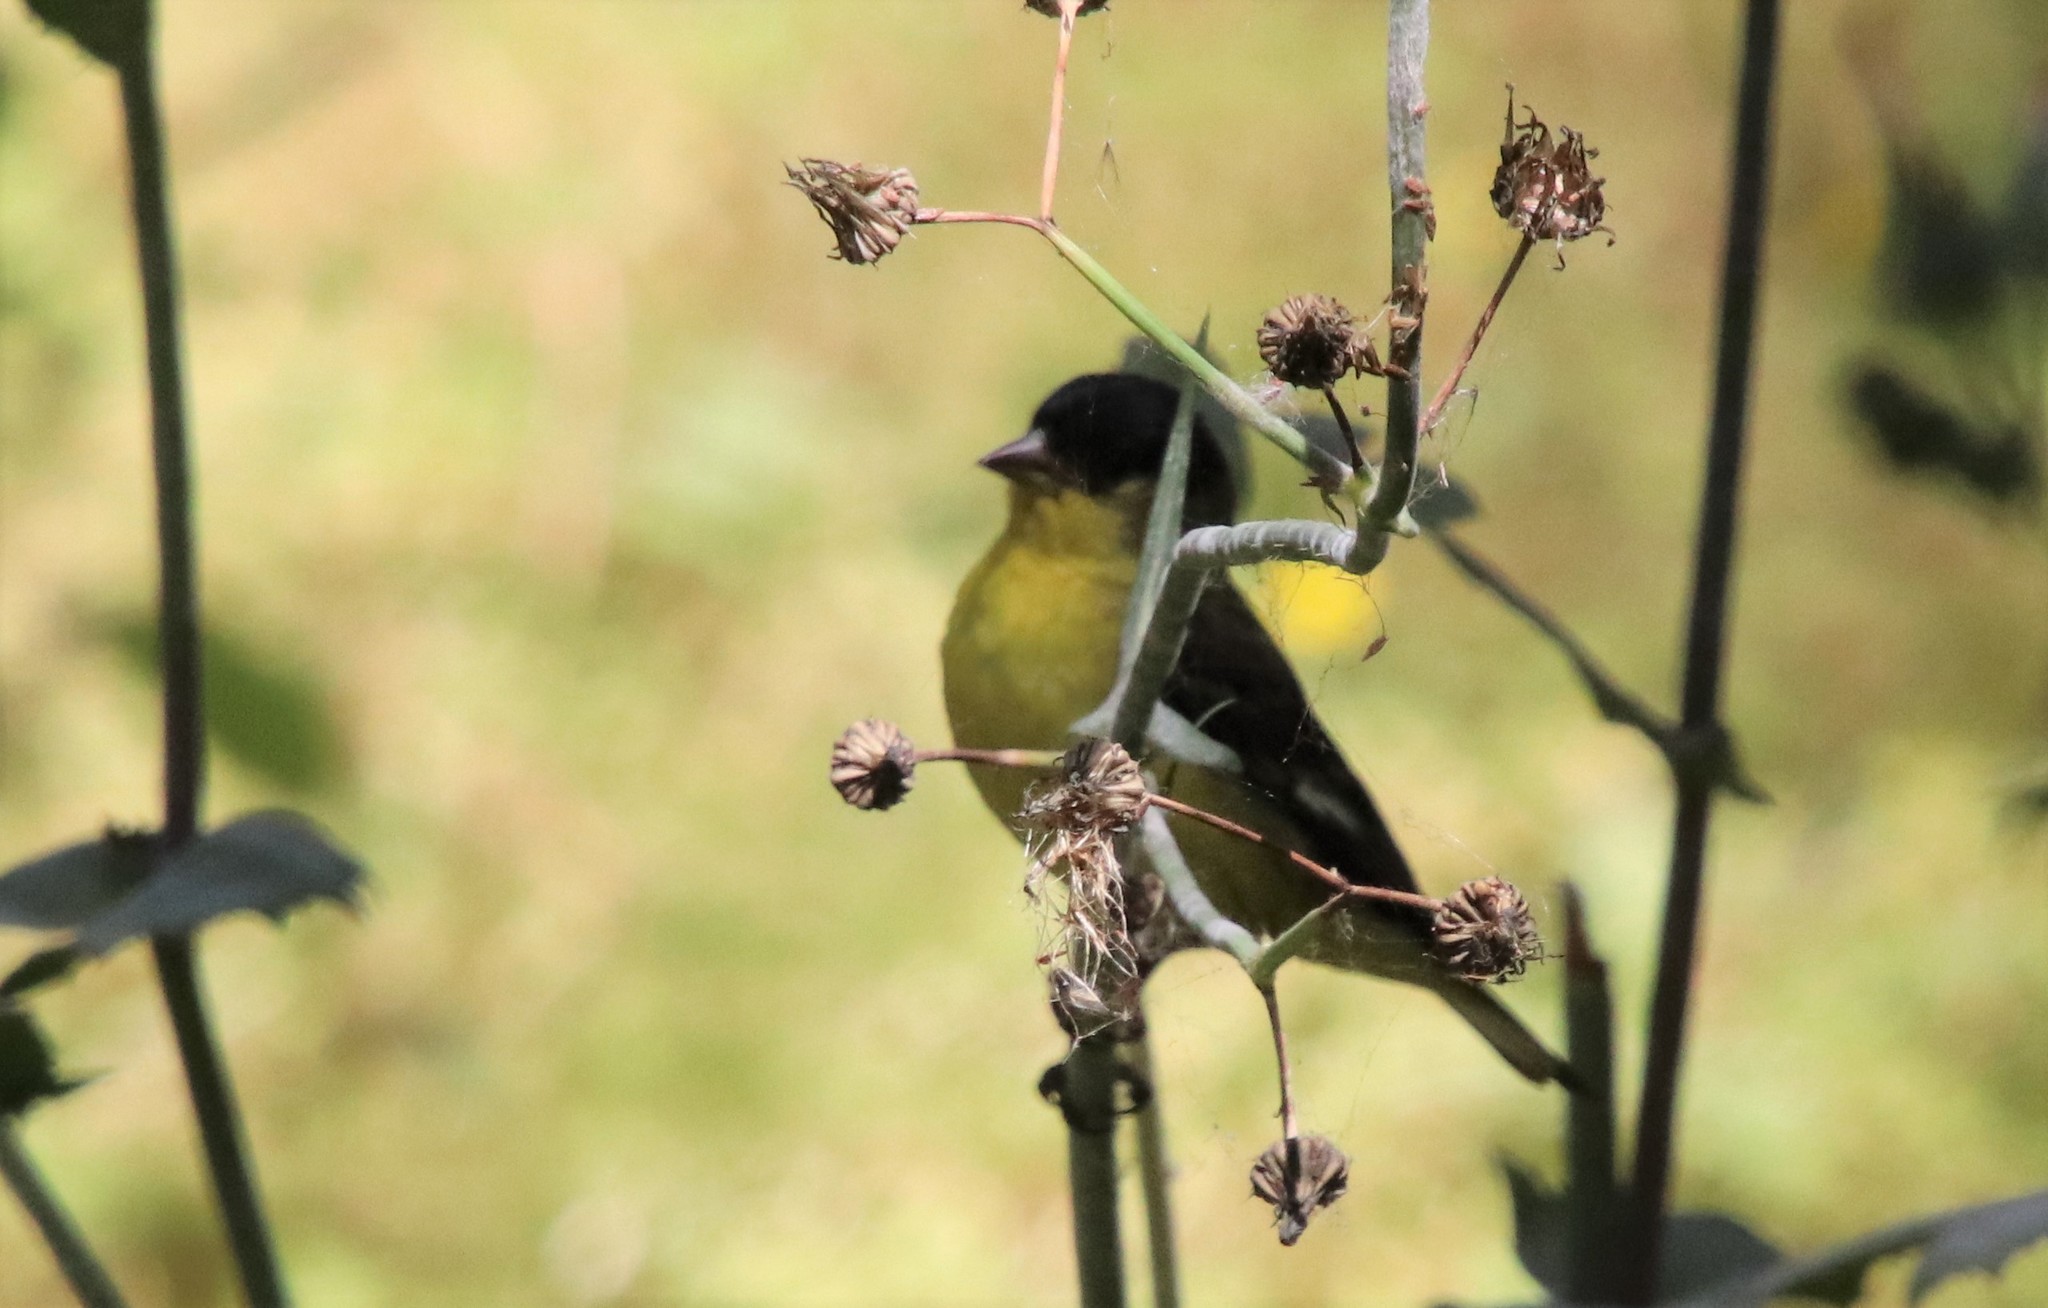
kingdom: Animalia
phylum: Chordata
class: Aves
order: Passeriformes
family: Fringillidae
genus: Spinus
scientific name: Spinus psaltria
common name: Lesser goldfinch
